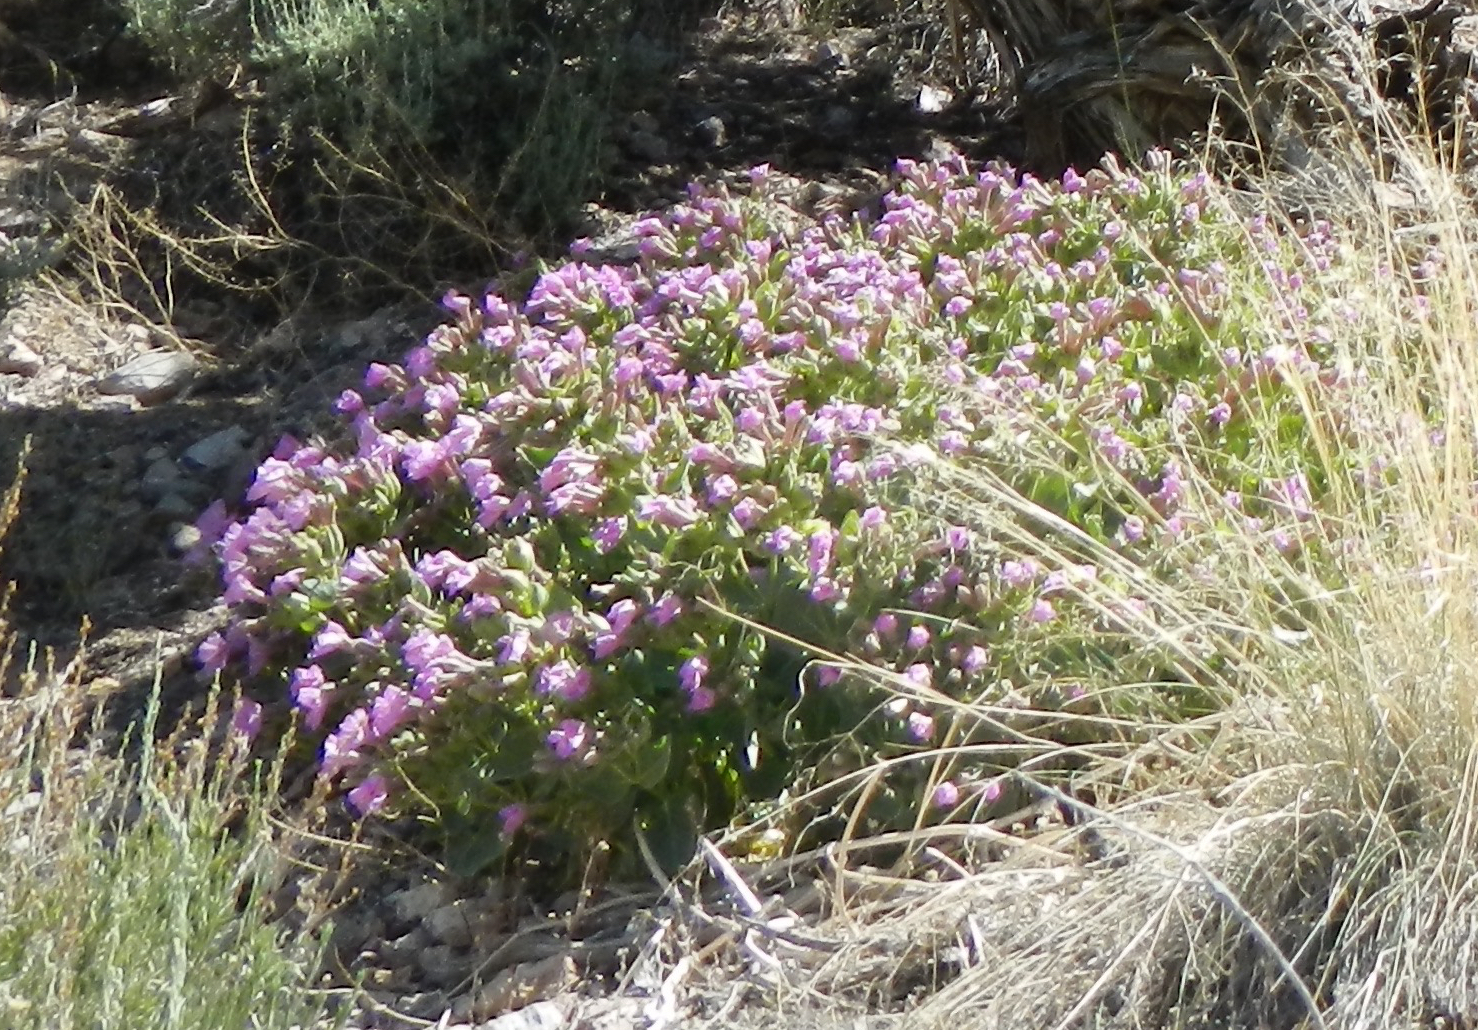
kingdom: Plantae
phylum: Tracheophyta
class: Magnoliopsida
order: Caryophyllales
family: Nyctaginaceae
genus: Mirabilis
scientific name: Mirabilis multiflora
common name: Froebel's four-o'clock
